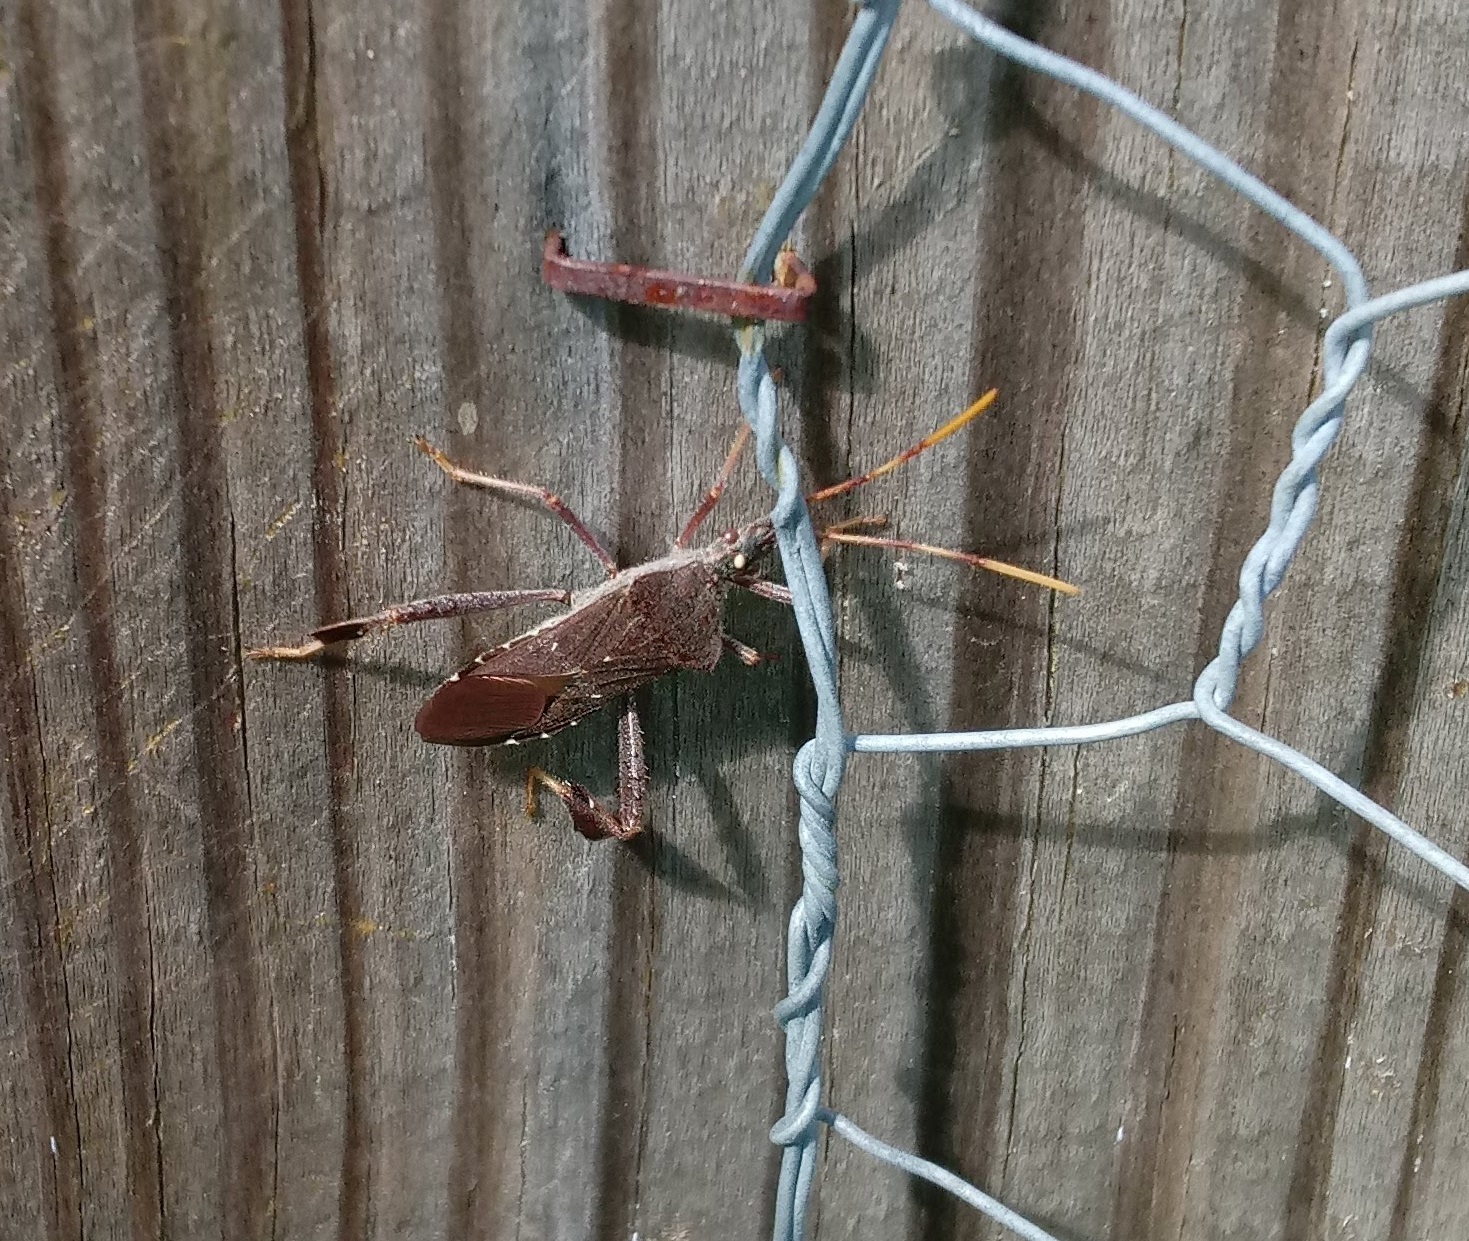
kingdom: Animalia
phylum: Arthropoda
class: Insecta
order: Hemiptera
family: Coreidae
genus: Leptoglossus
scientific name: Leptoglossus oppositus
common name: Northern leaf-footed bug
